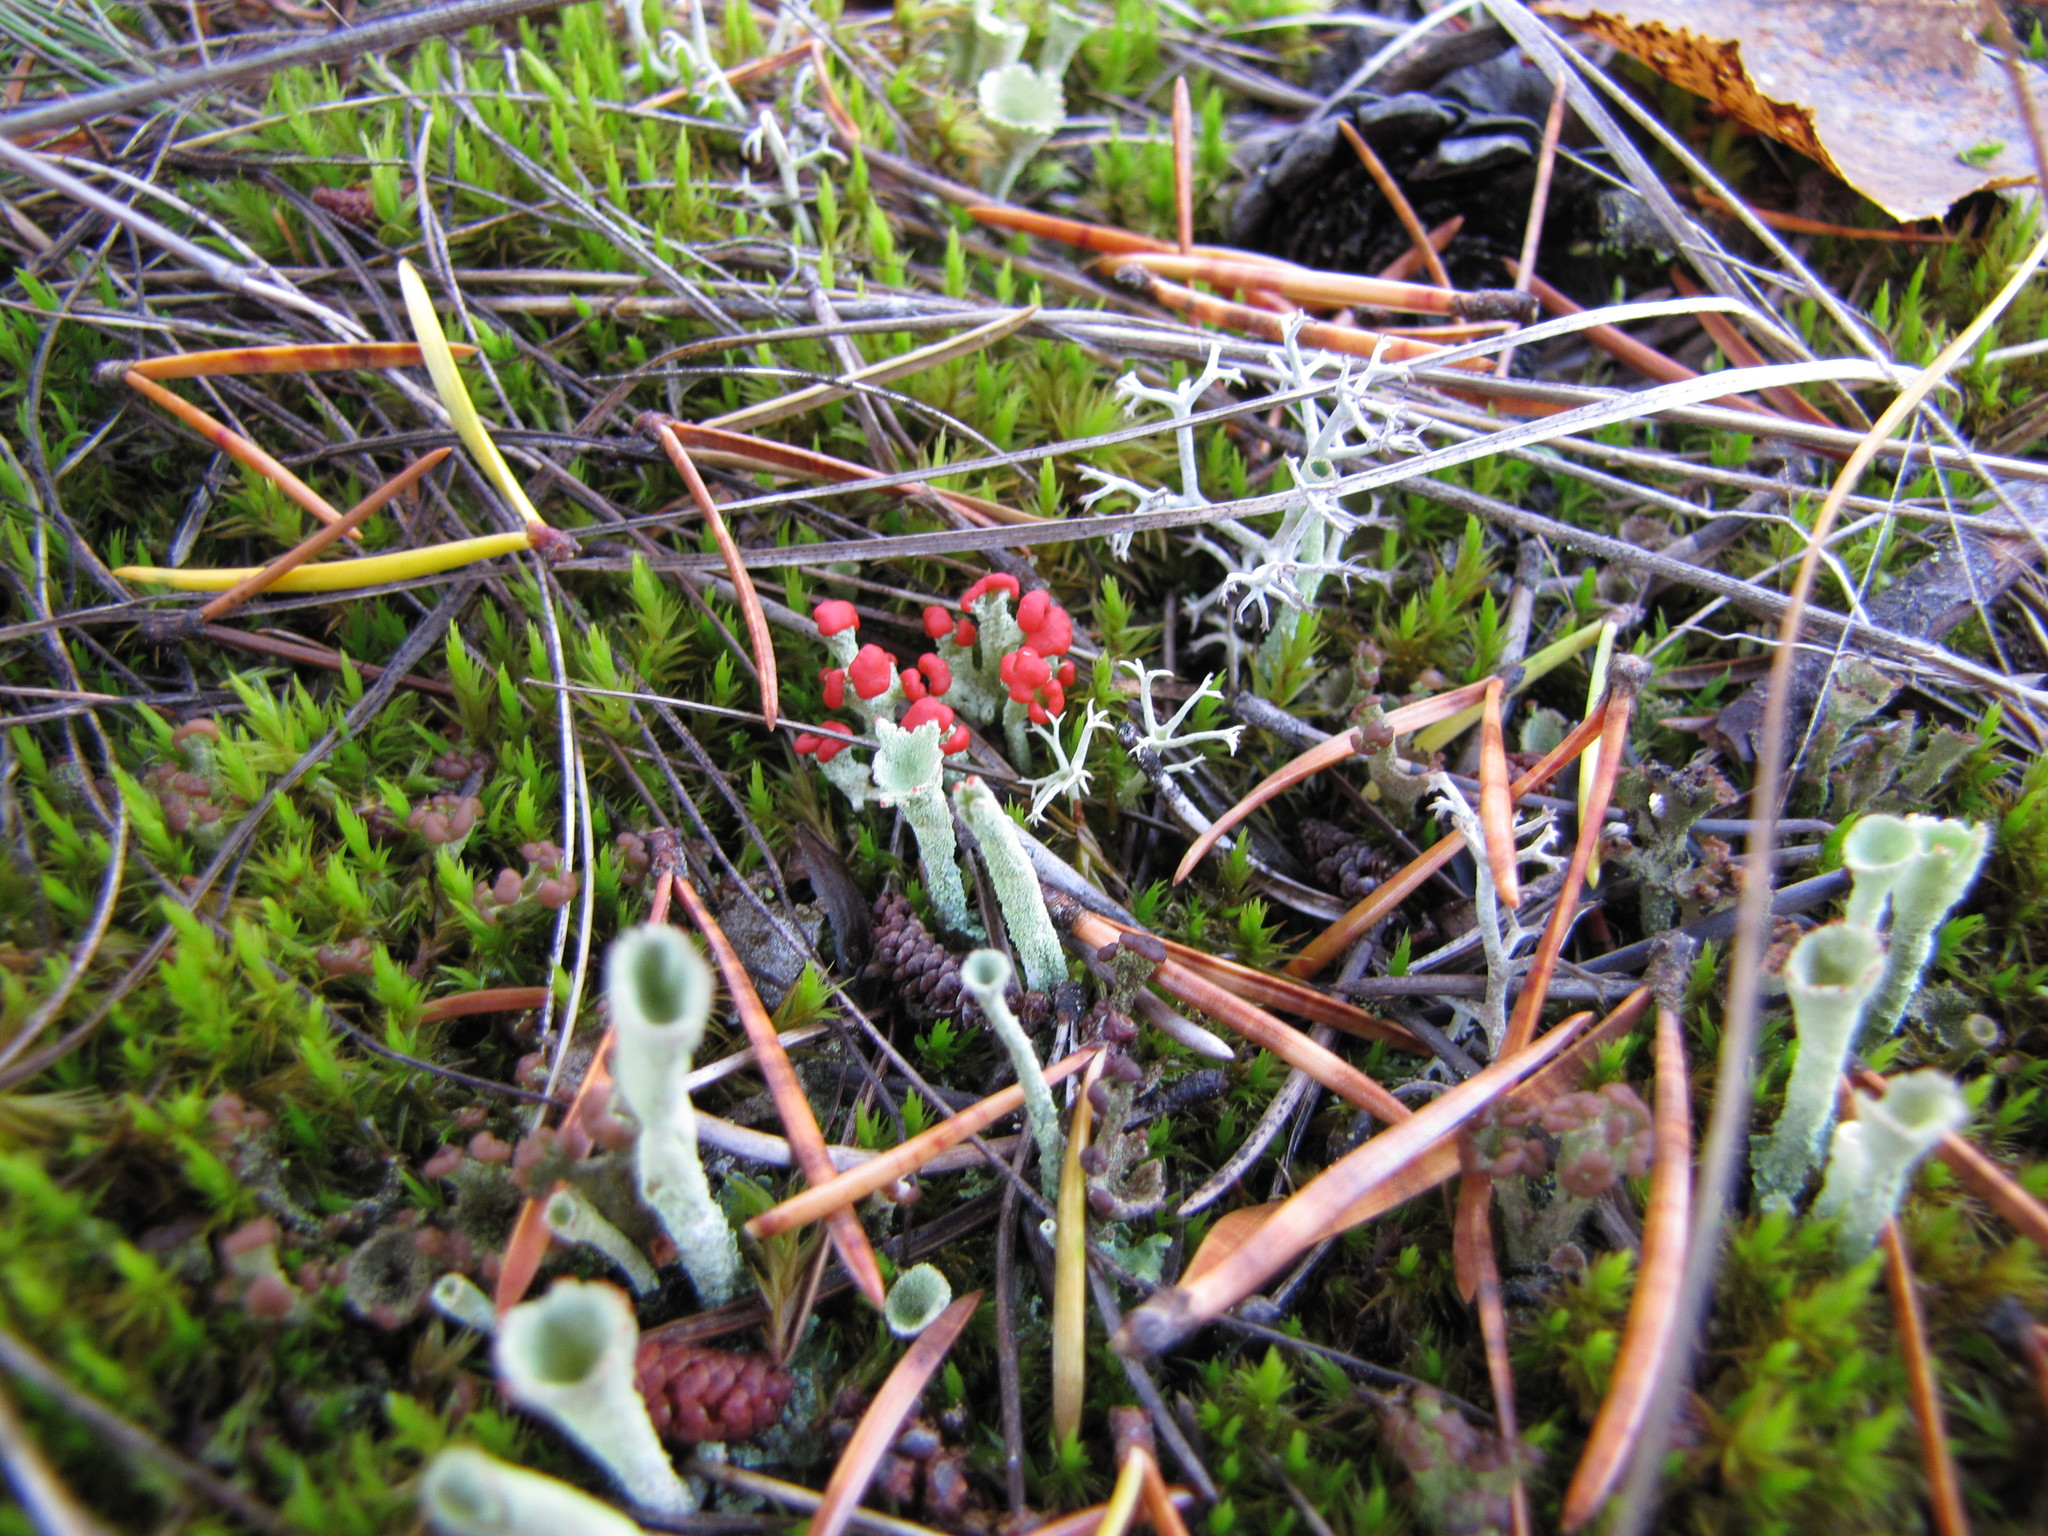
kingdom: Fungi
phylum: Ascomycota
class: Lecanoromycetes
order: Lecanorales
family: Cladoniaceae
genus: Cladonia
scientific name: Cladonia pleurota
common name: Red-fruited pixie cup
